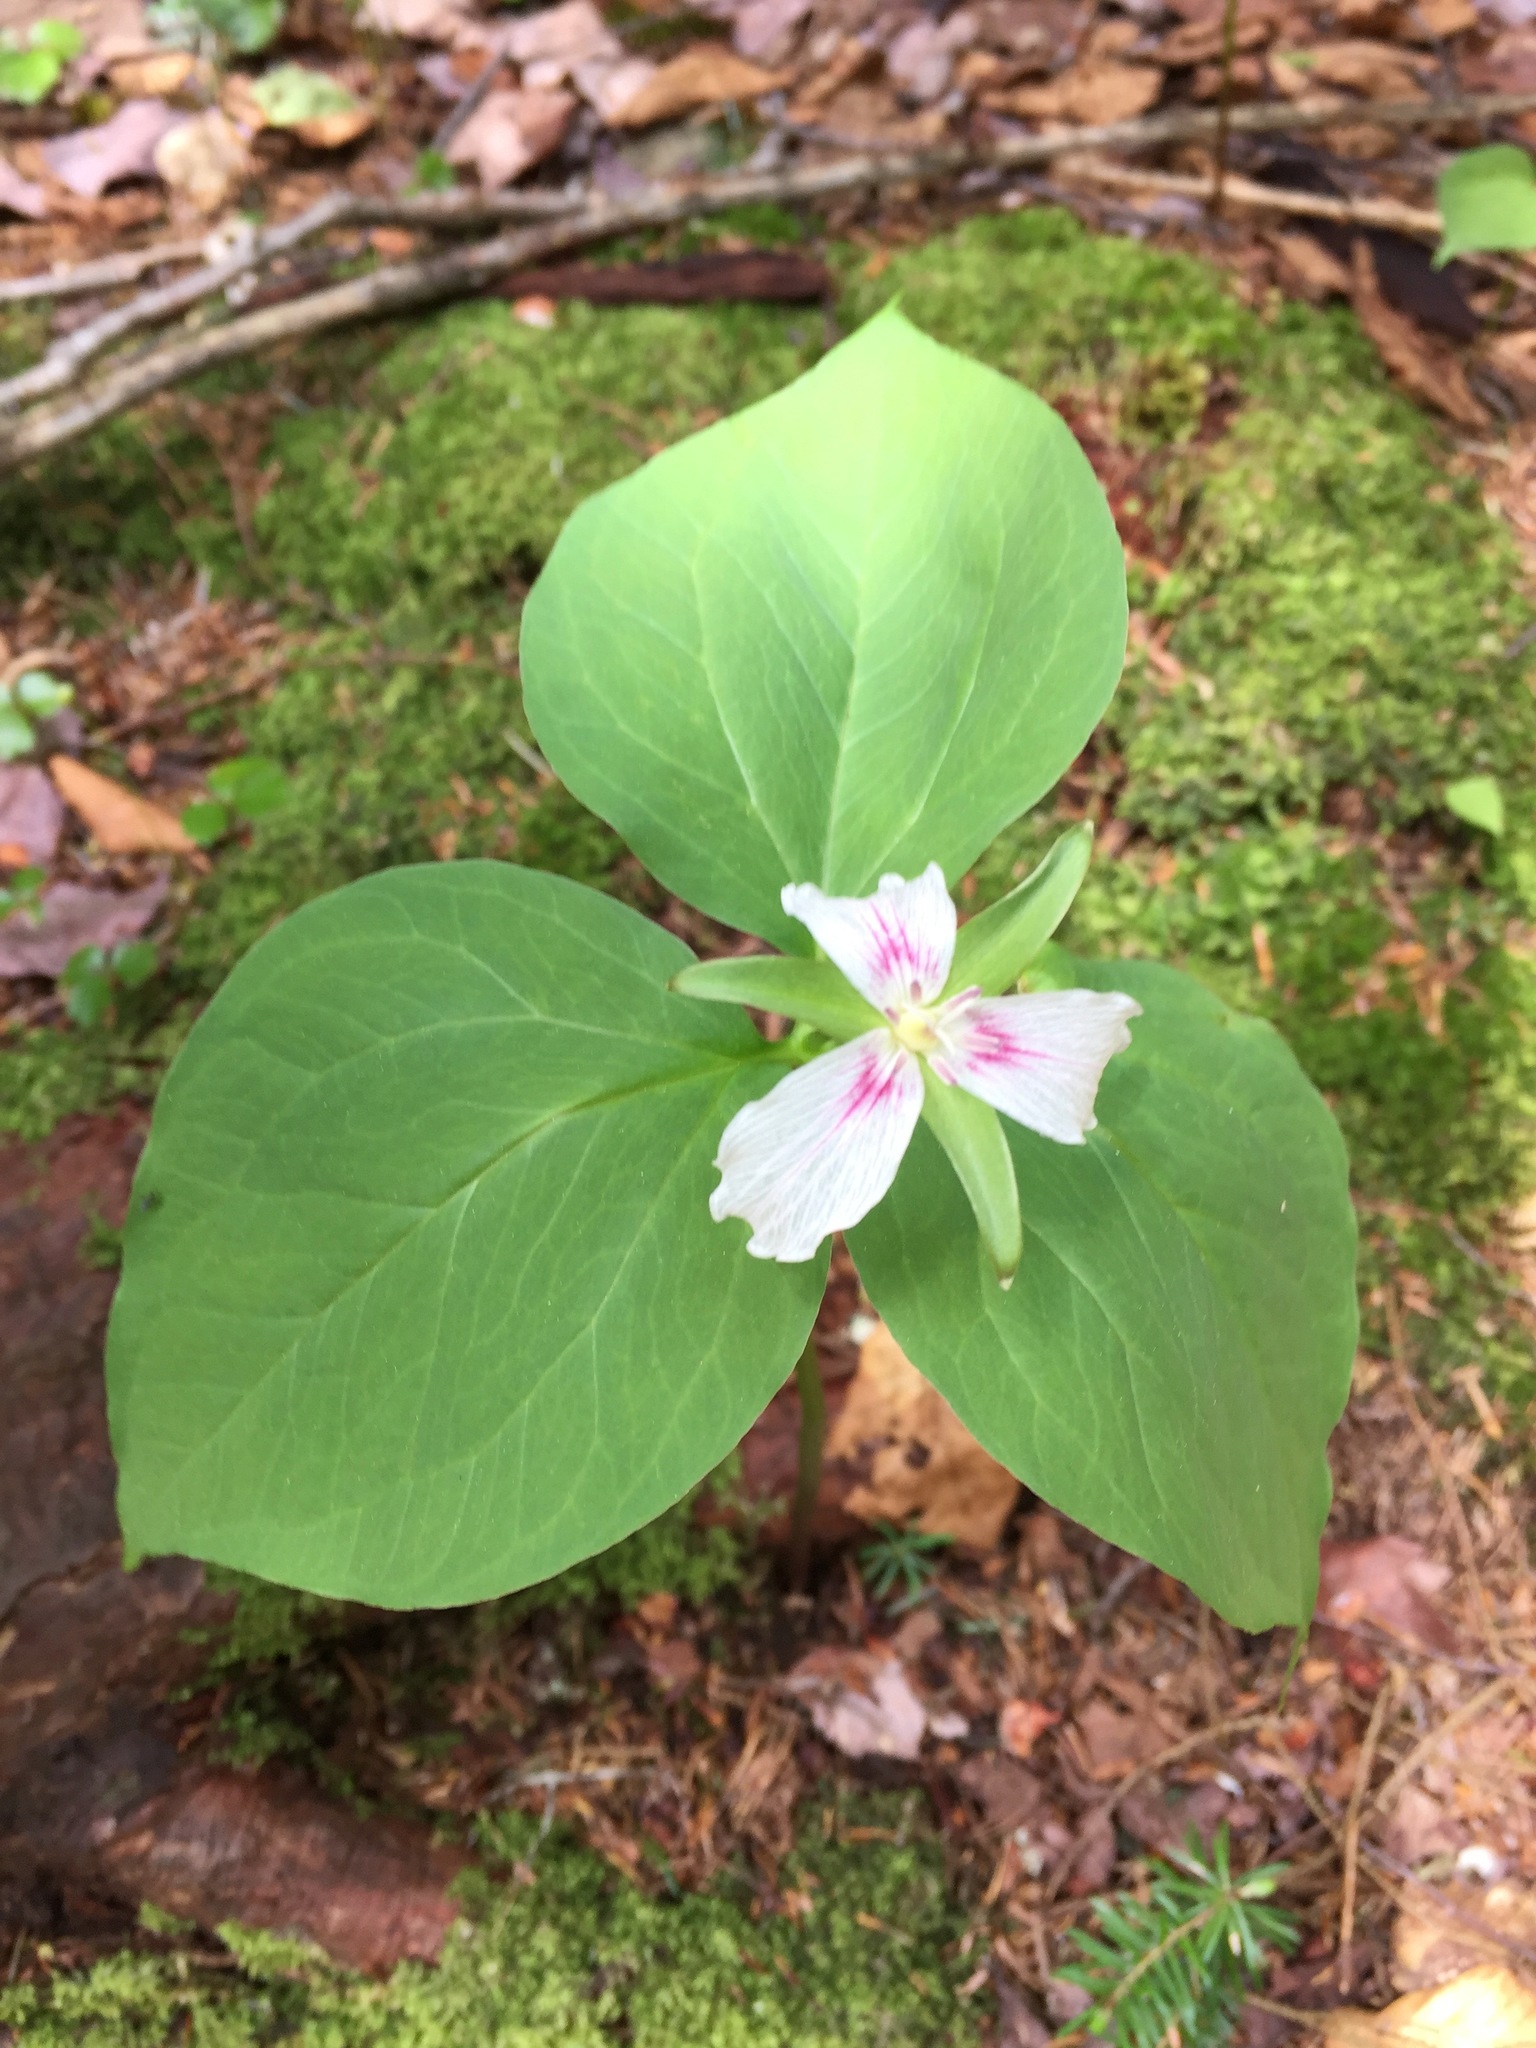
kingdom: Plantae
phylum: Tracheophyta
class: Liliopsida
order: Liliales
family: Melanthiaceae
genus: Trillium
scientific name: Trillium undulatum
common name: Paint trillium
